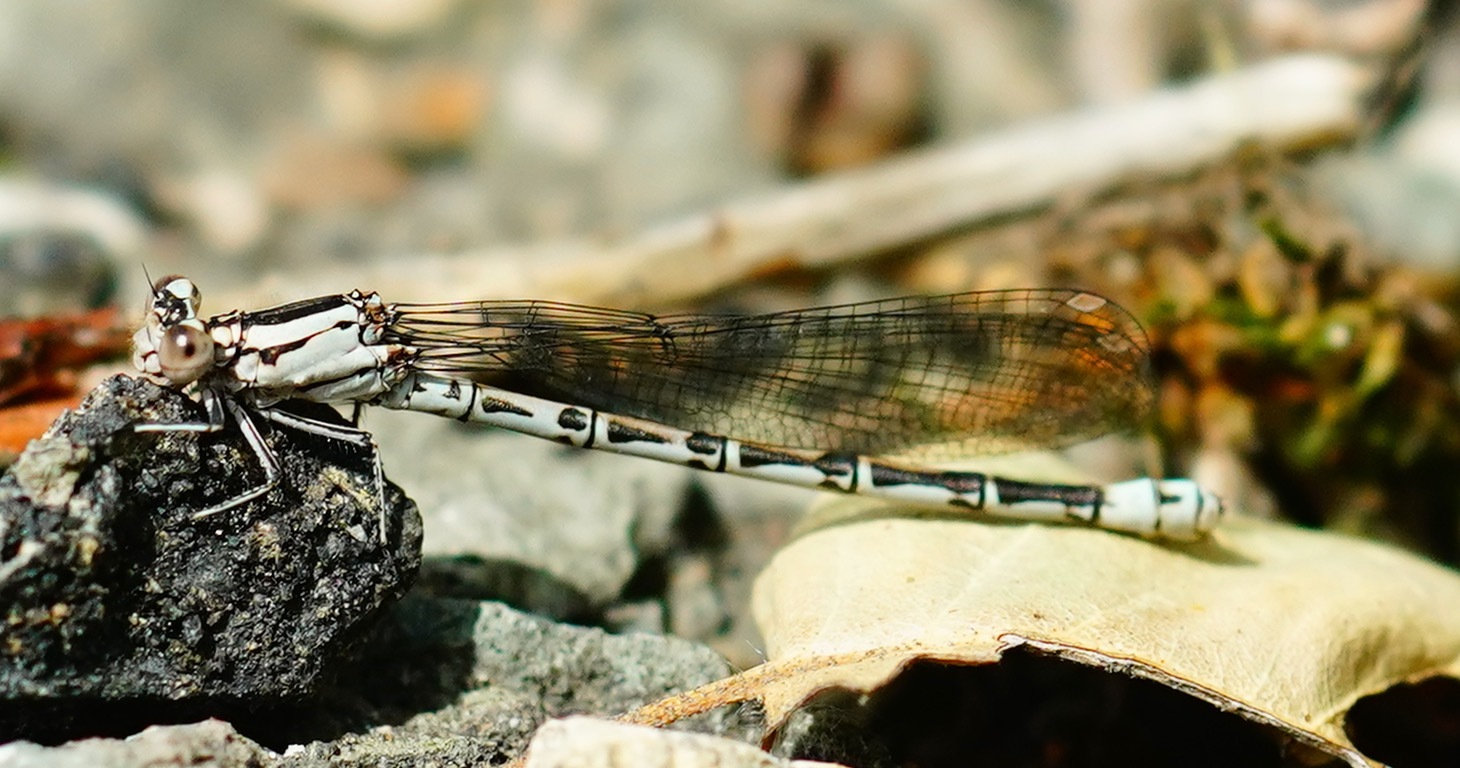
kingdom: Animalia
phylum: Arthropoda
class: Insecta
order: Odonata
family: Coenagrionidae
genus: Argia
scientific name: Argia vivida
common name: Vivid dancer
